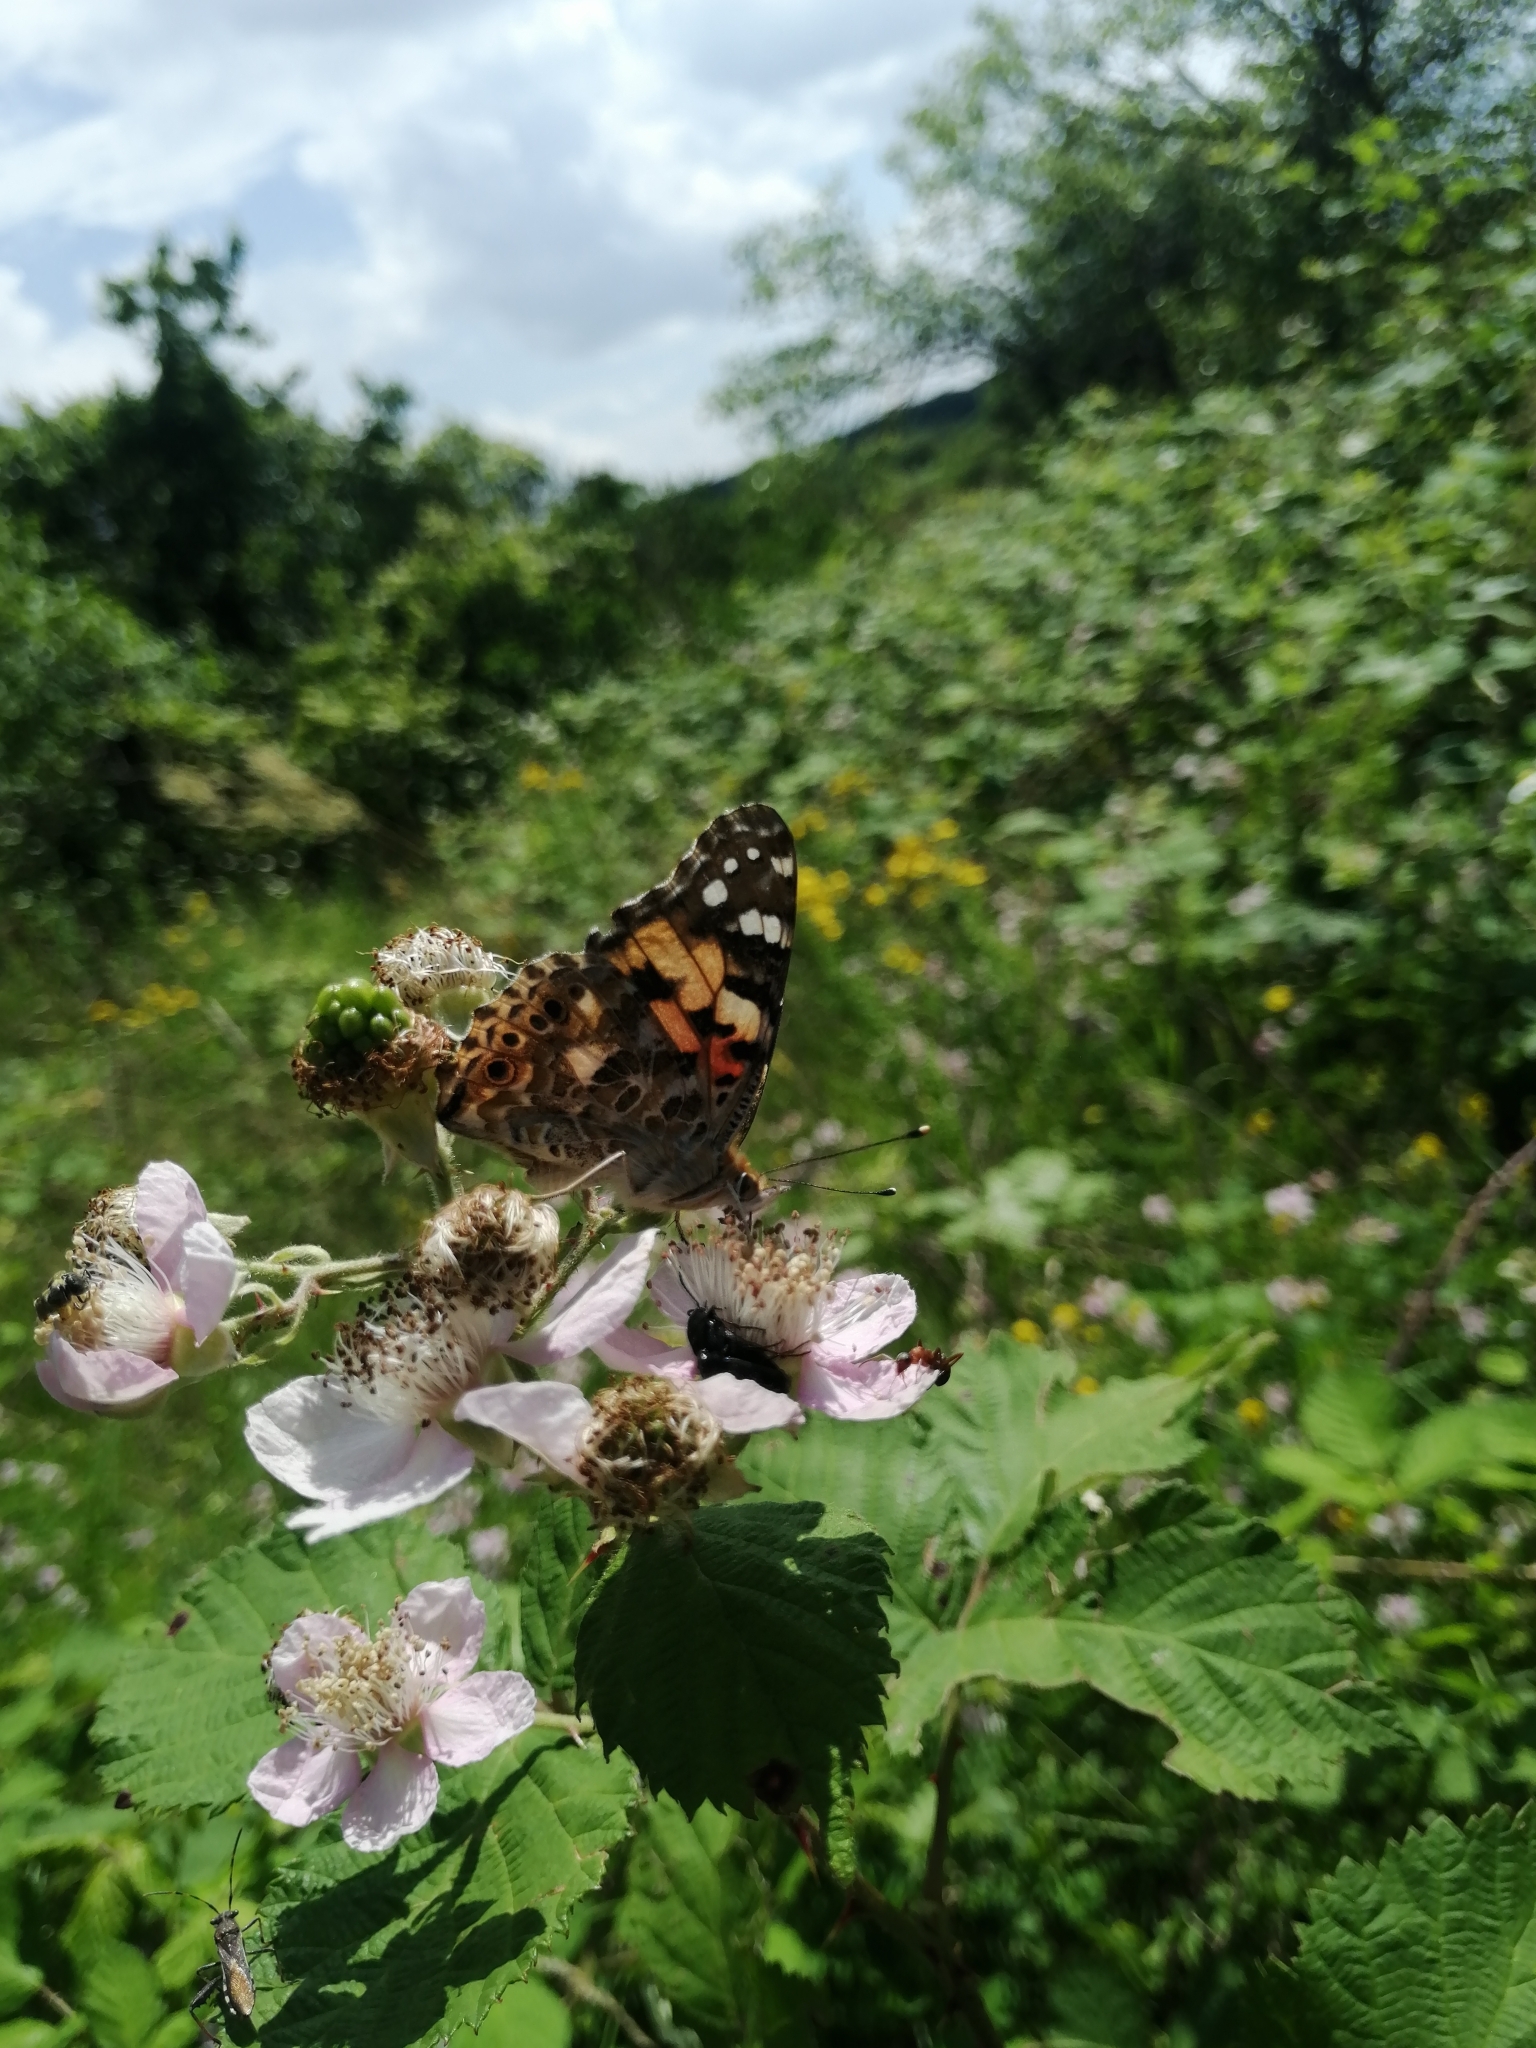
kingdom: Animalia
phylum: Arthropoda
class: Insecta
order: Lepidoptera
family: Nymphalidae
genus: Vanessa
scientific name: Vanessa cardui
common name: Painted lady
